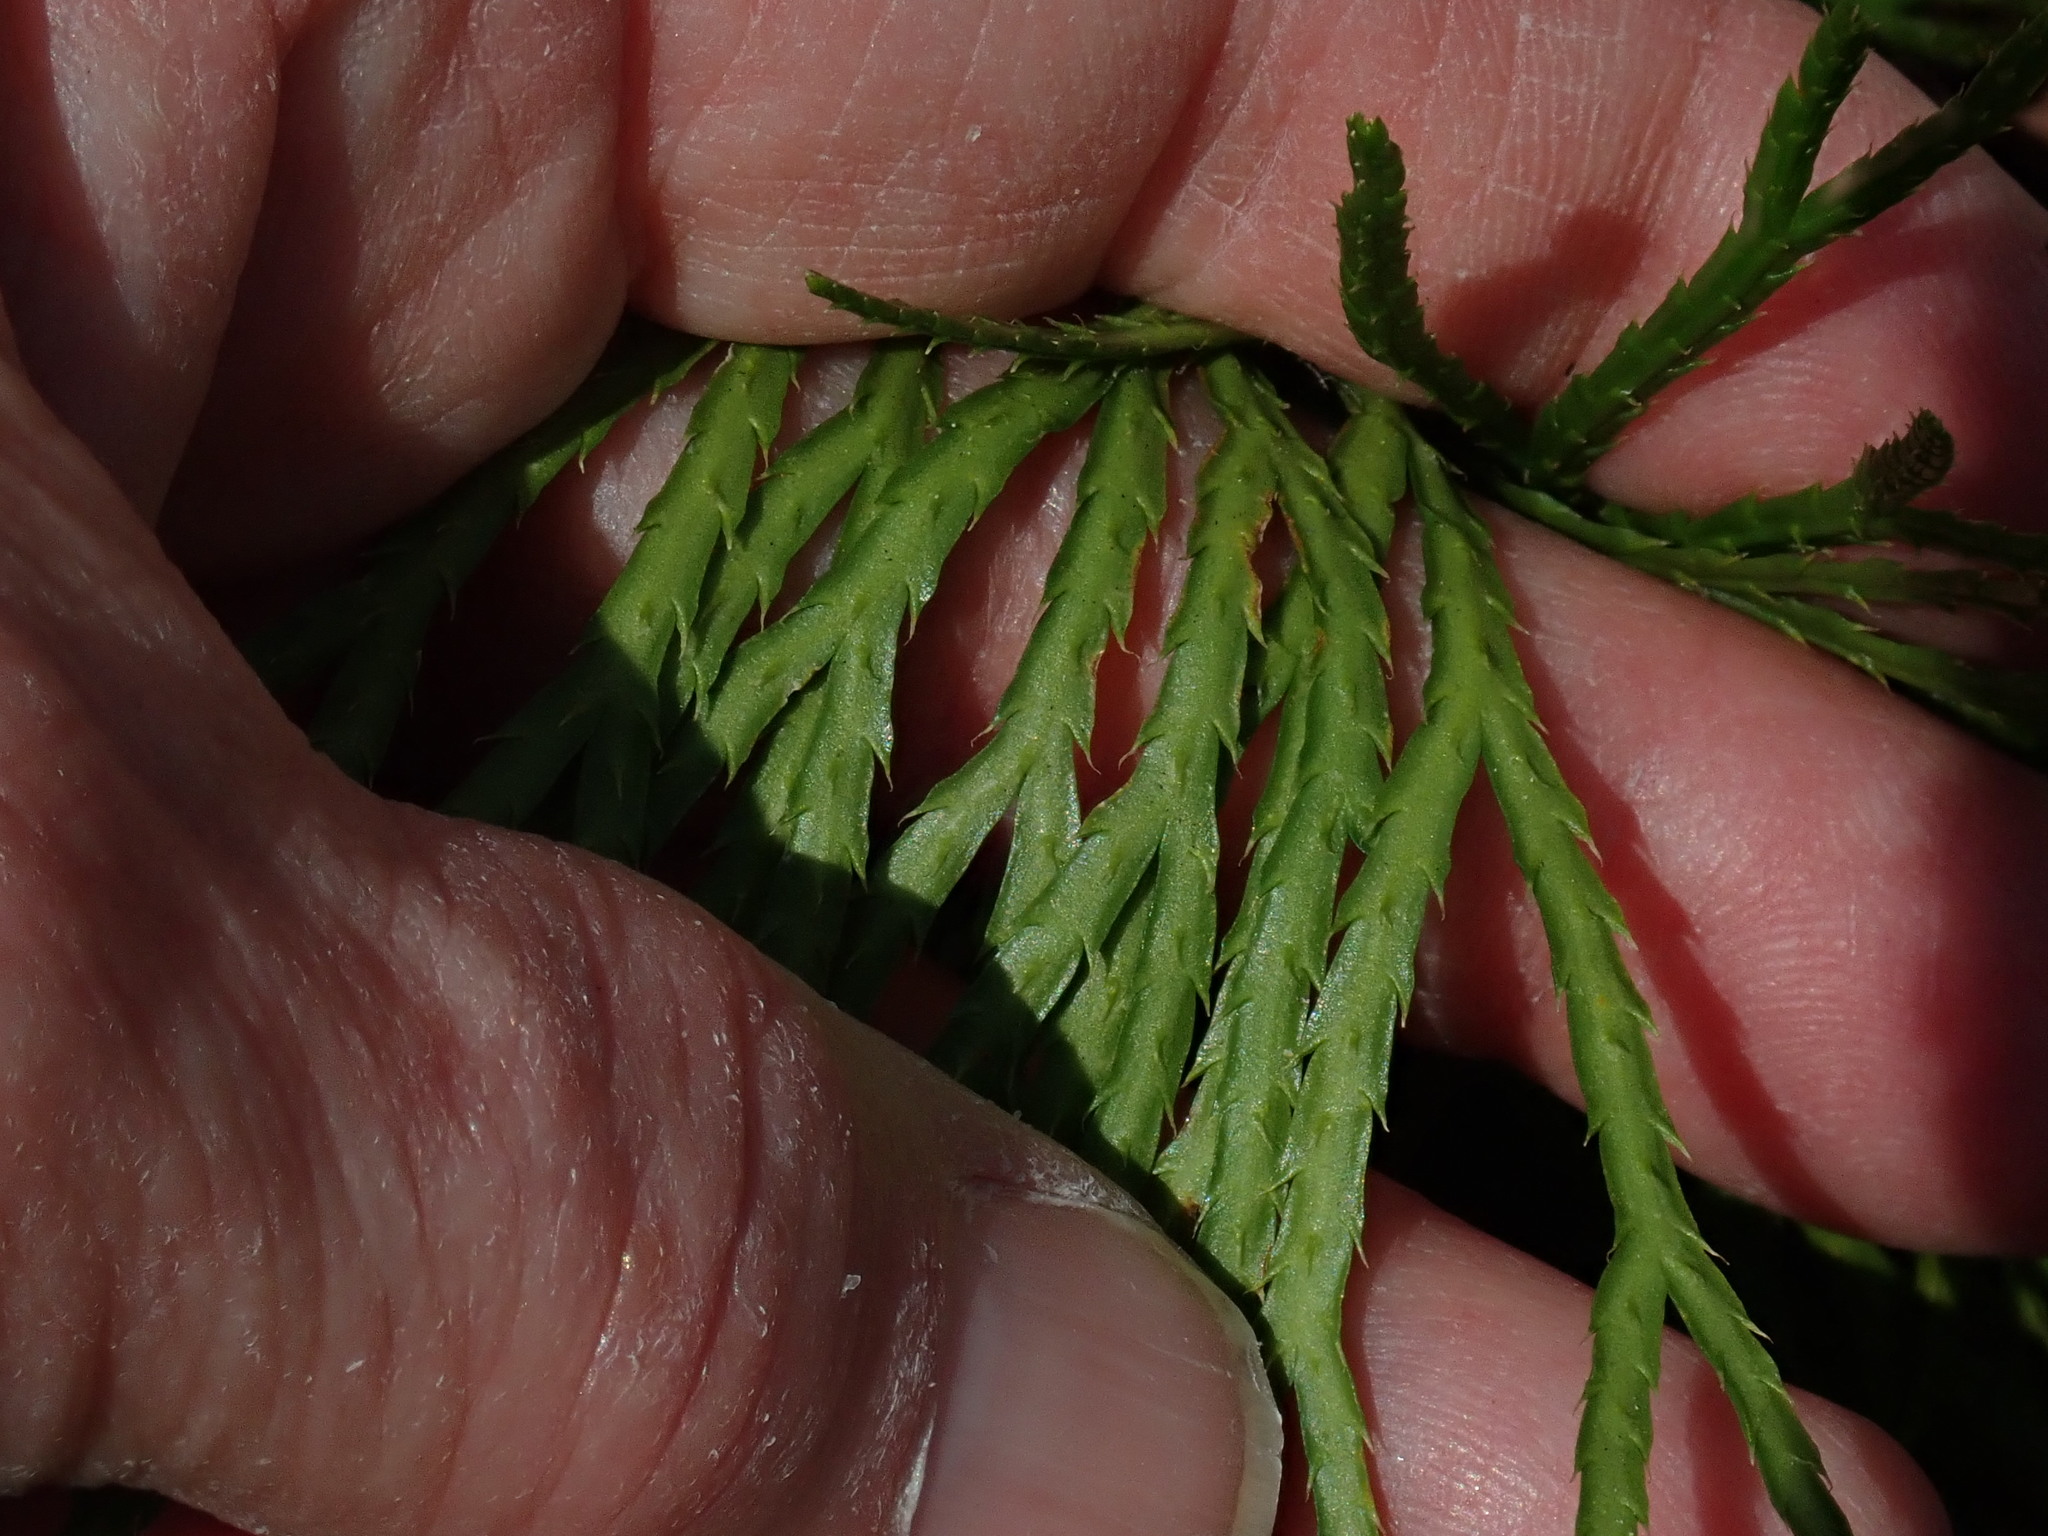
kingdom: Plantae
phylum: Tracheophyta
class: Lycopodiopsida
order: Lycopodiales
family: Lycopodiaceae
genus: Diphasiastrum
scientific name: Diphasiastrum digitatum
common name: Southern running-pine
